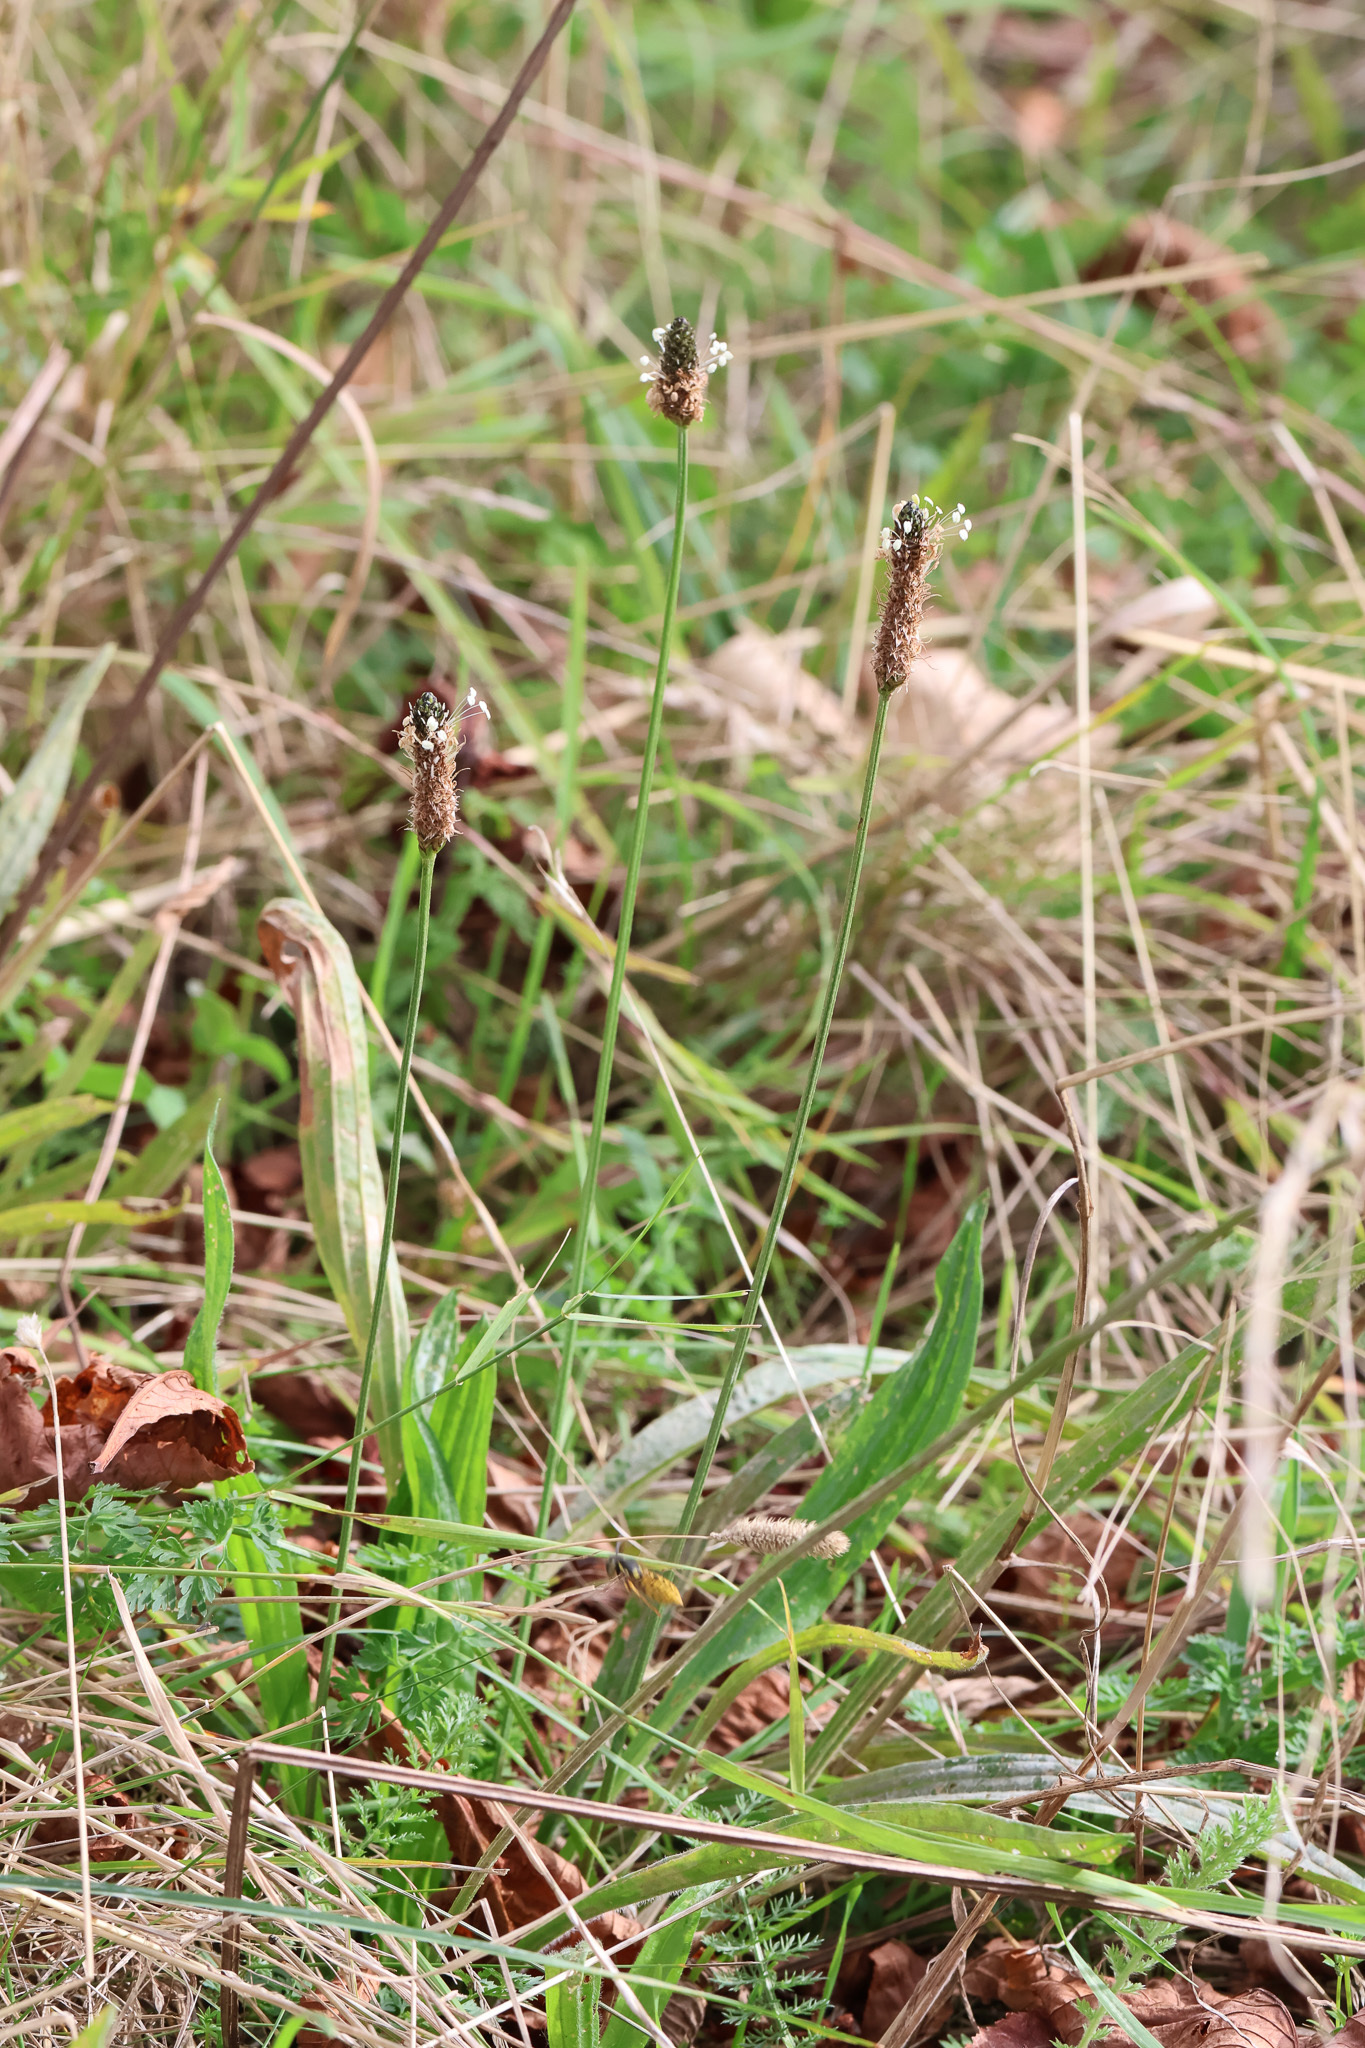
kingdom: Plantae
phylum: Tracheophyta
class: Magnoliopsida
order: Lamiales
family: Plantaginaceae
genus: Plantago
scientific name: Plantago lanceolata
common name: Ribwort plantain
